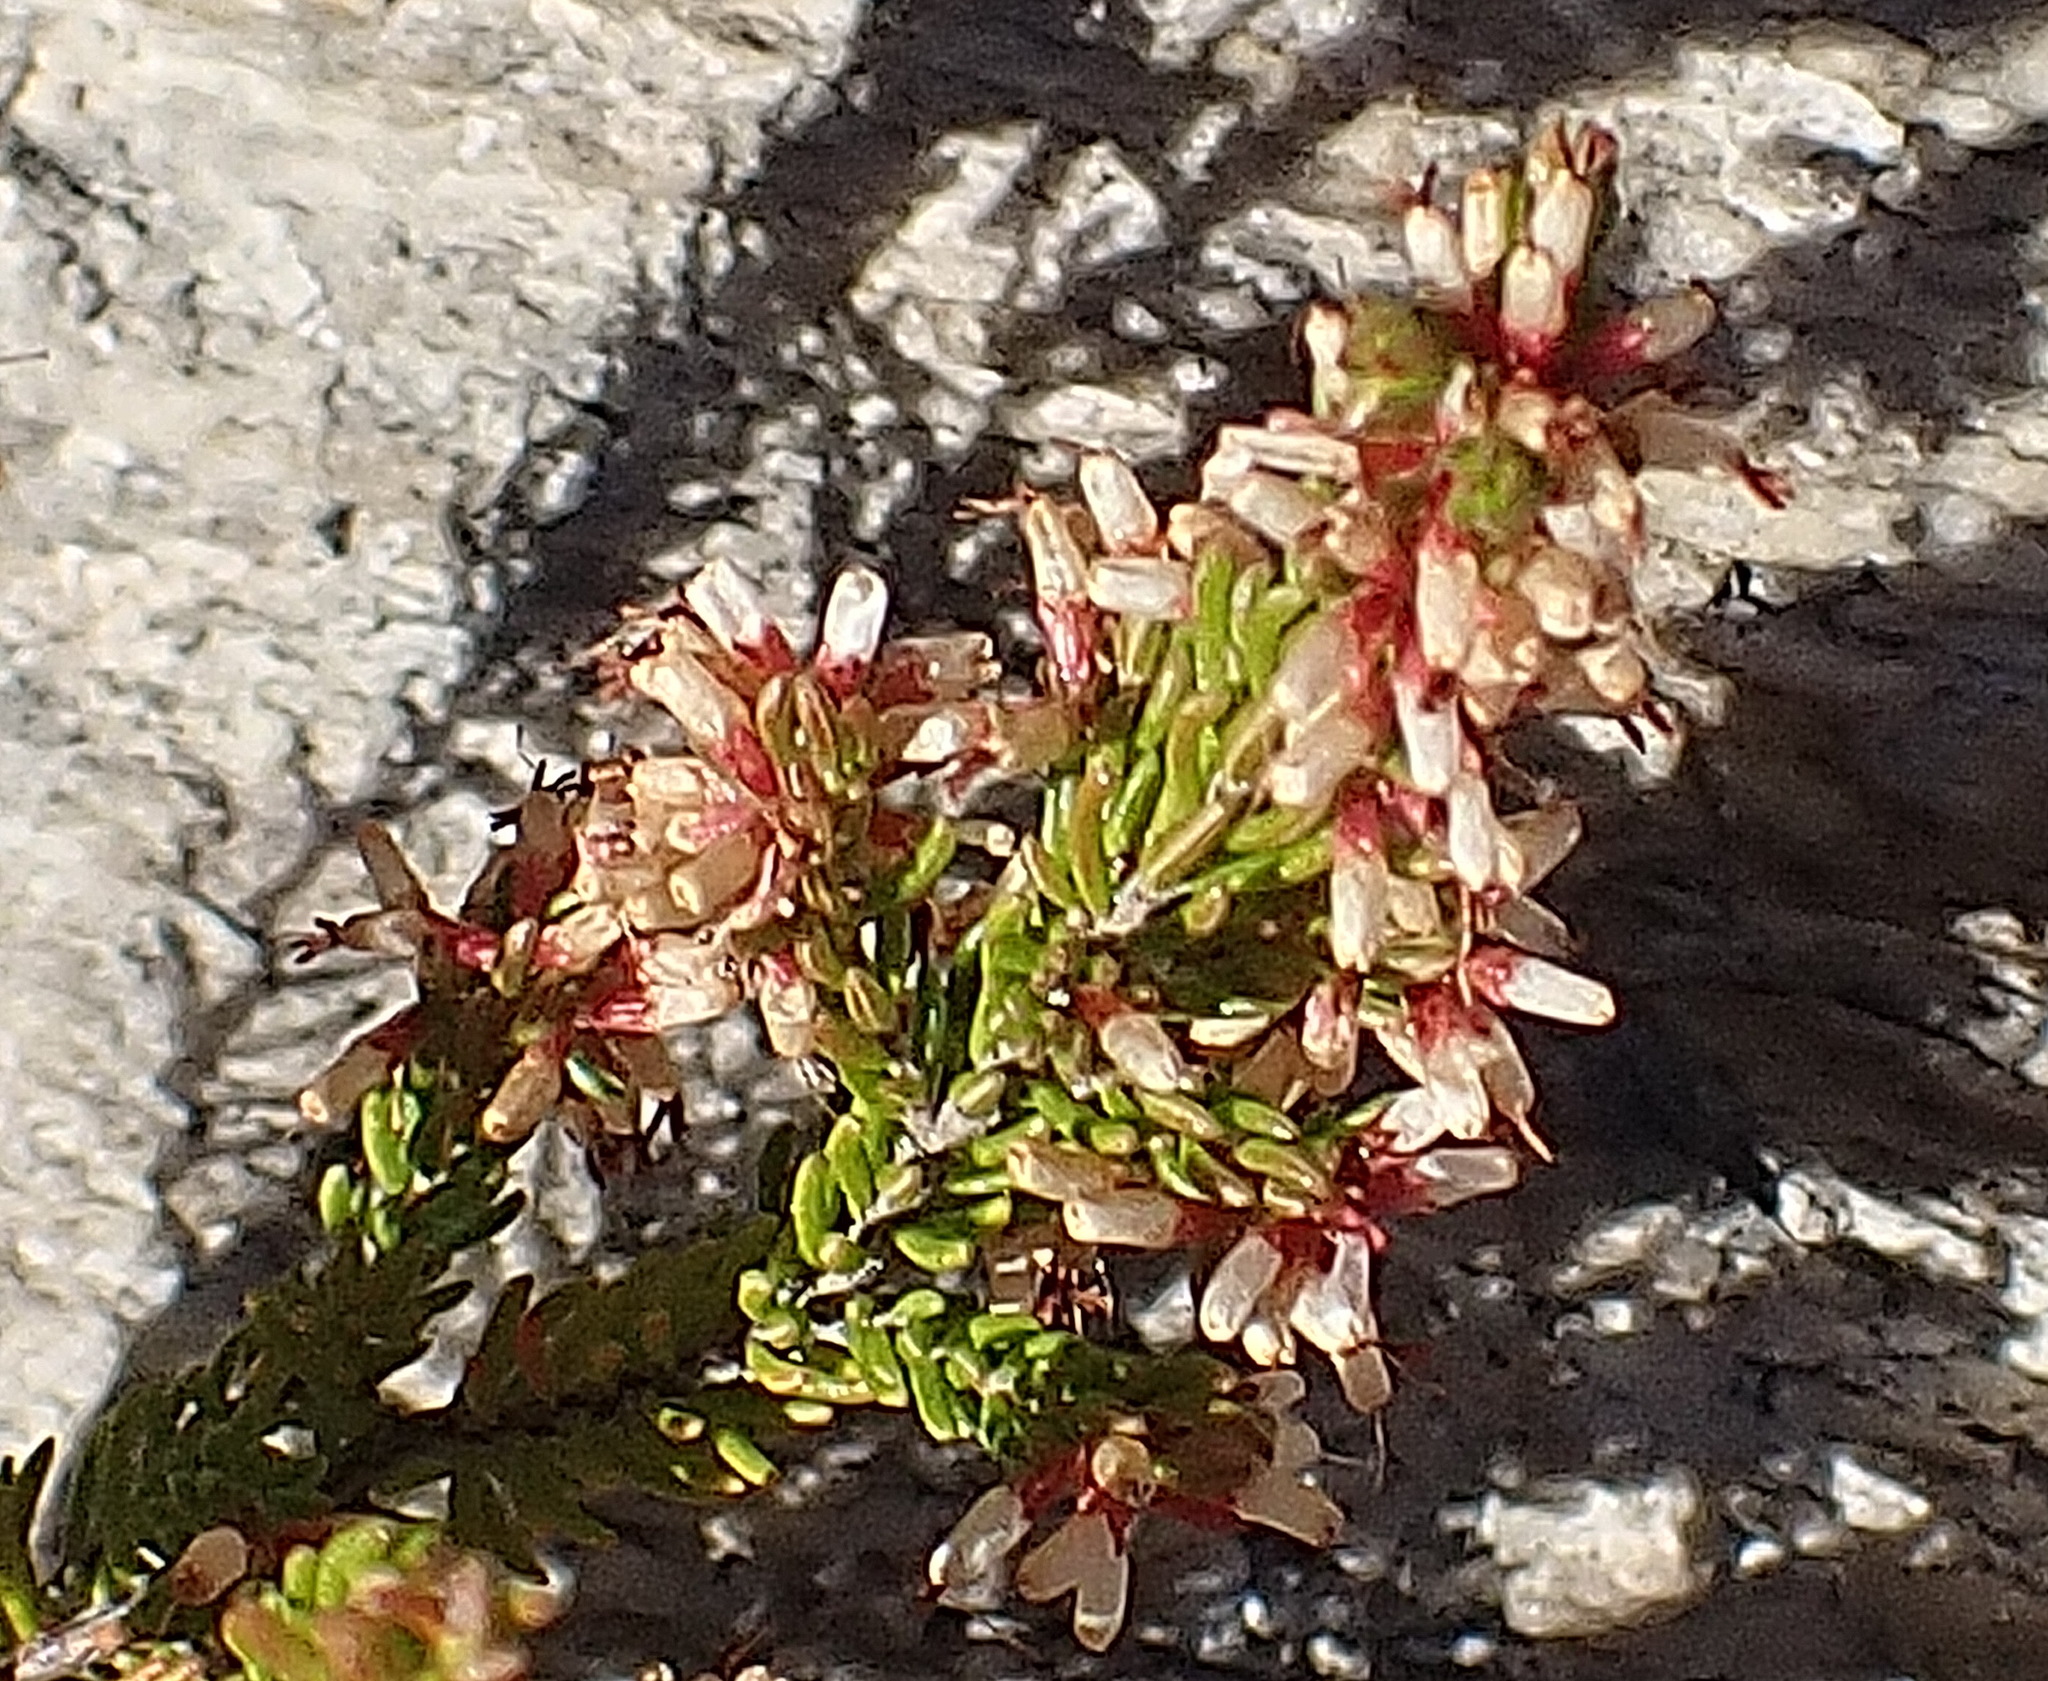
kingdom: Plantae
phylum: Tracheophyta
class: Magnoliopsida
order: Ericales
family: Ericaceae
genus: Erica
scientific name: Erica uberiflora
